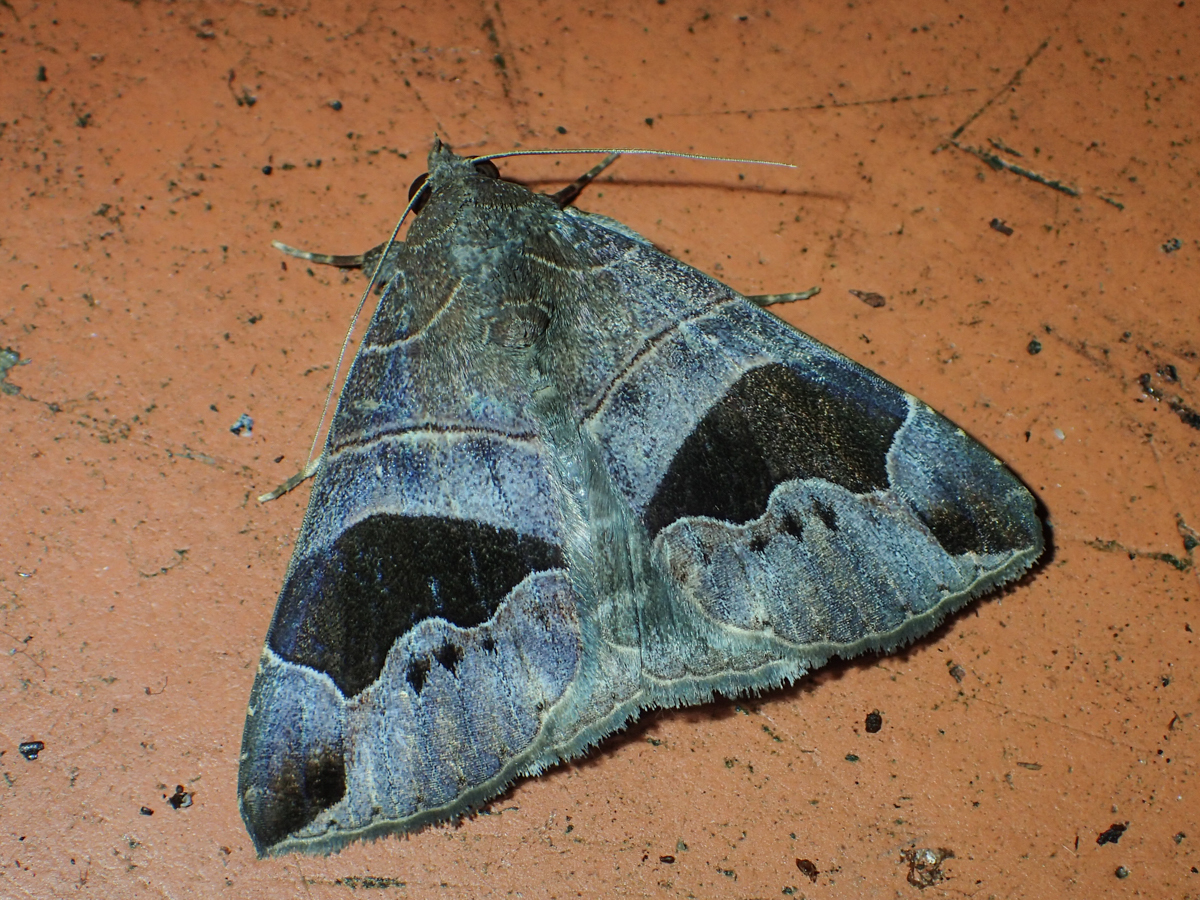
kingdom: Animalia
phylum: Arthropoda
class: Insecta
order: Lepidoptera
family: Erebidae
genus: Bastilla
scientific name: Bastilla joviana
